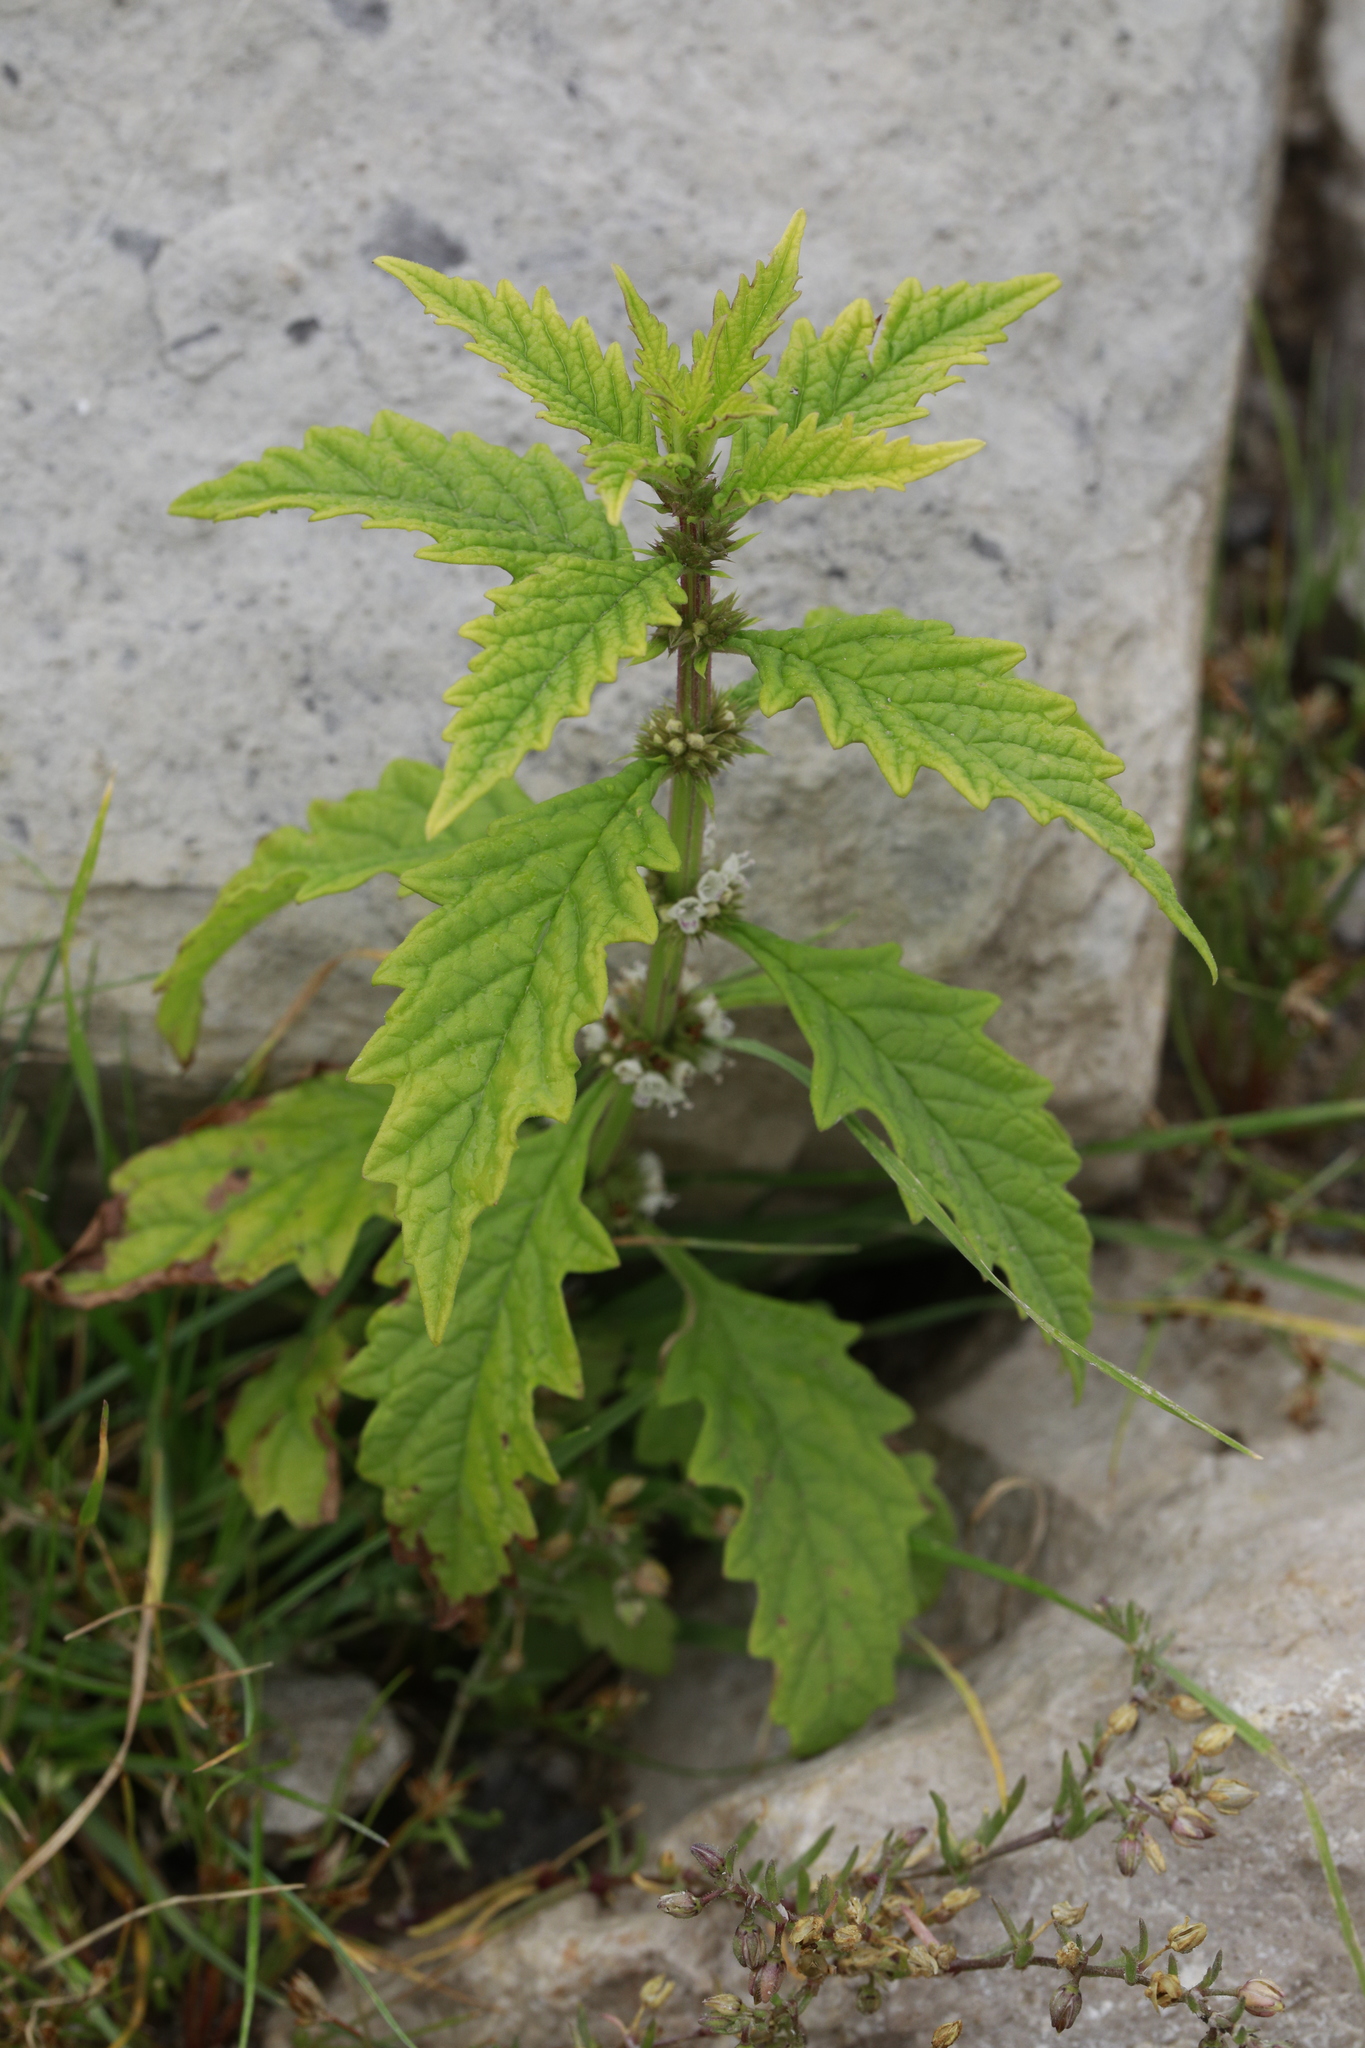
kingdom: Plantae
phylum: Tracheophyta
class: Magnoliopsida
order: Lamiales
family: Lamiaceae
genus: Lycopus
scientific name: Lycopus europaeus
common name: European bugleweed
